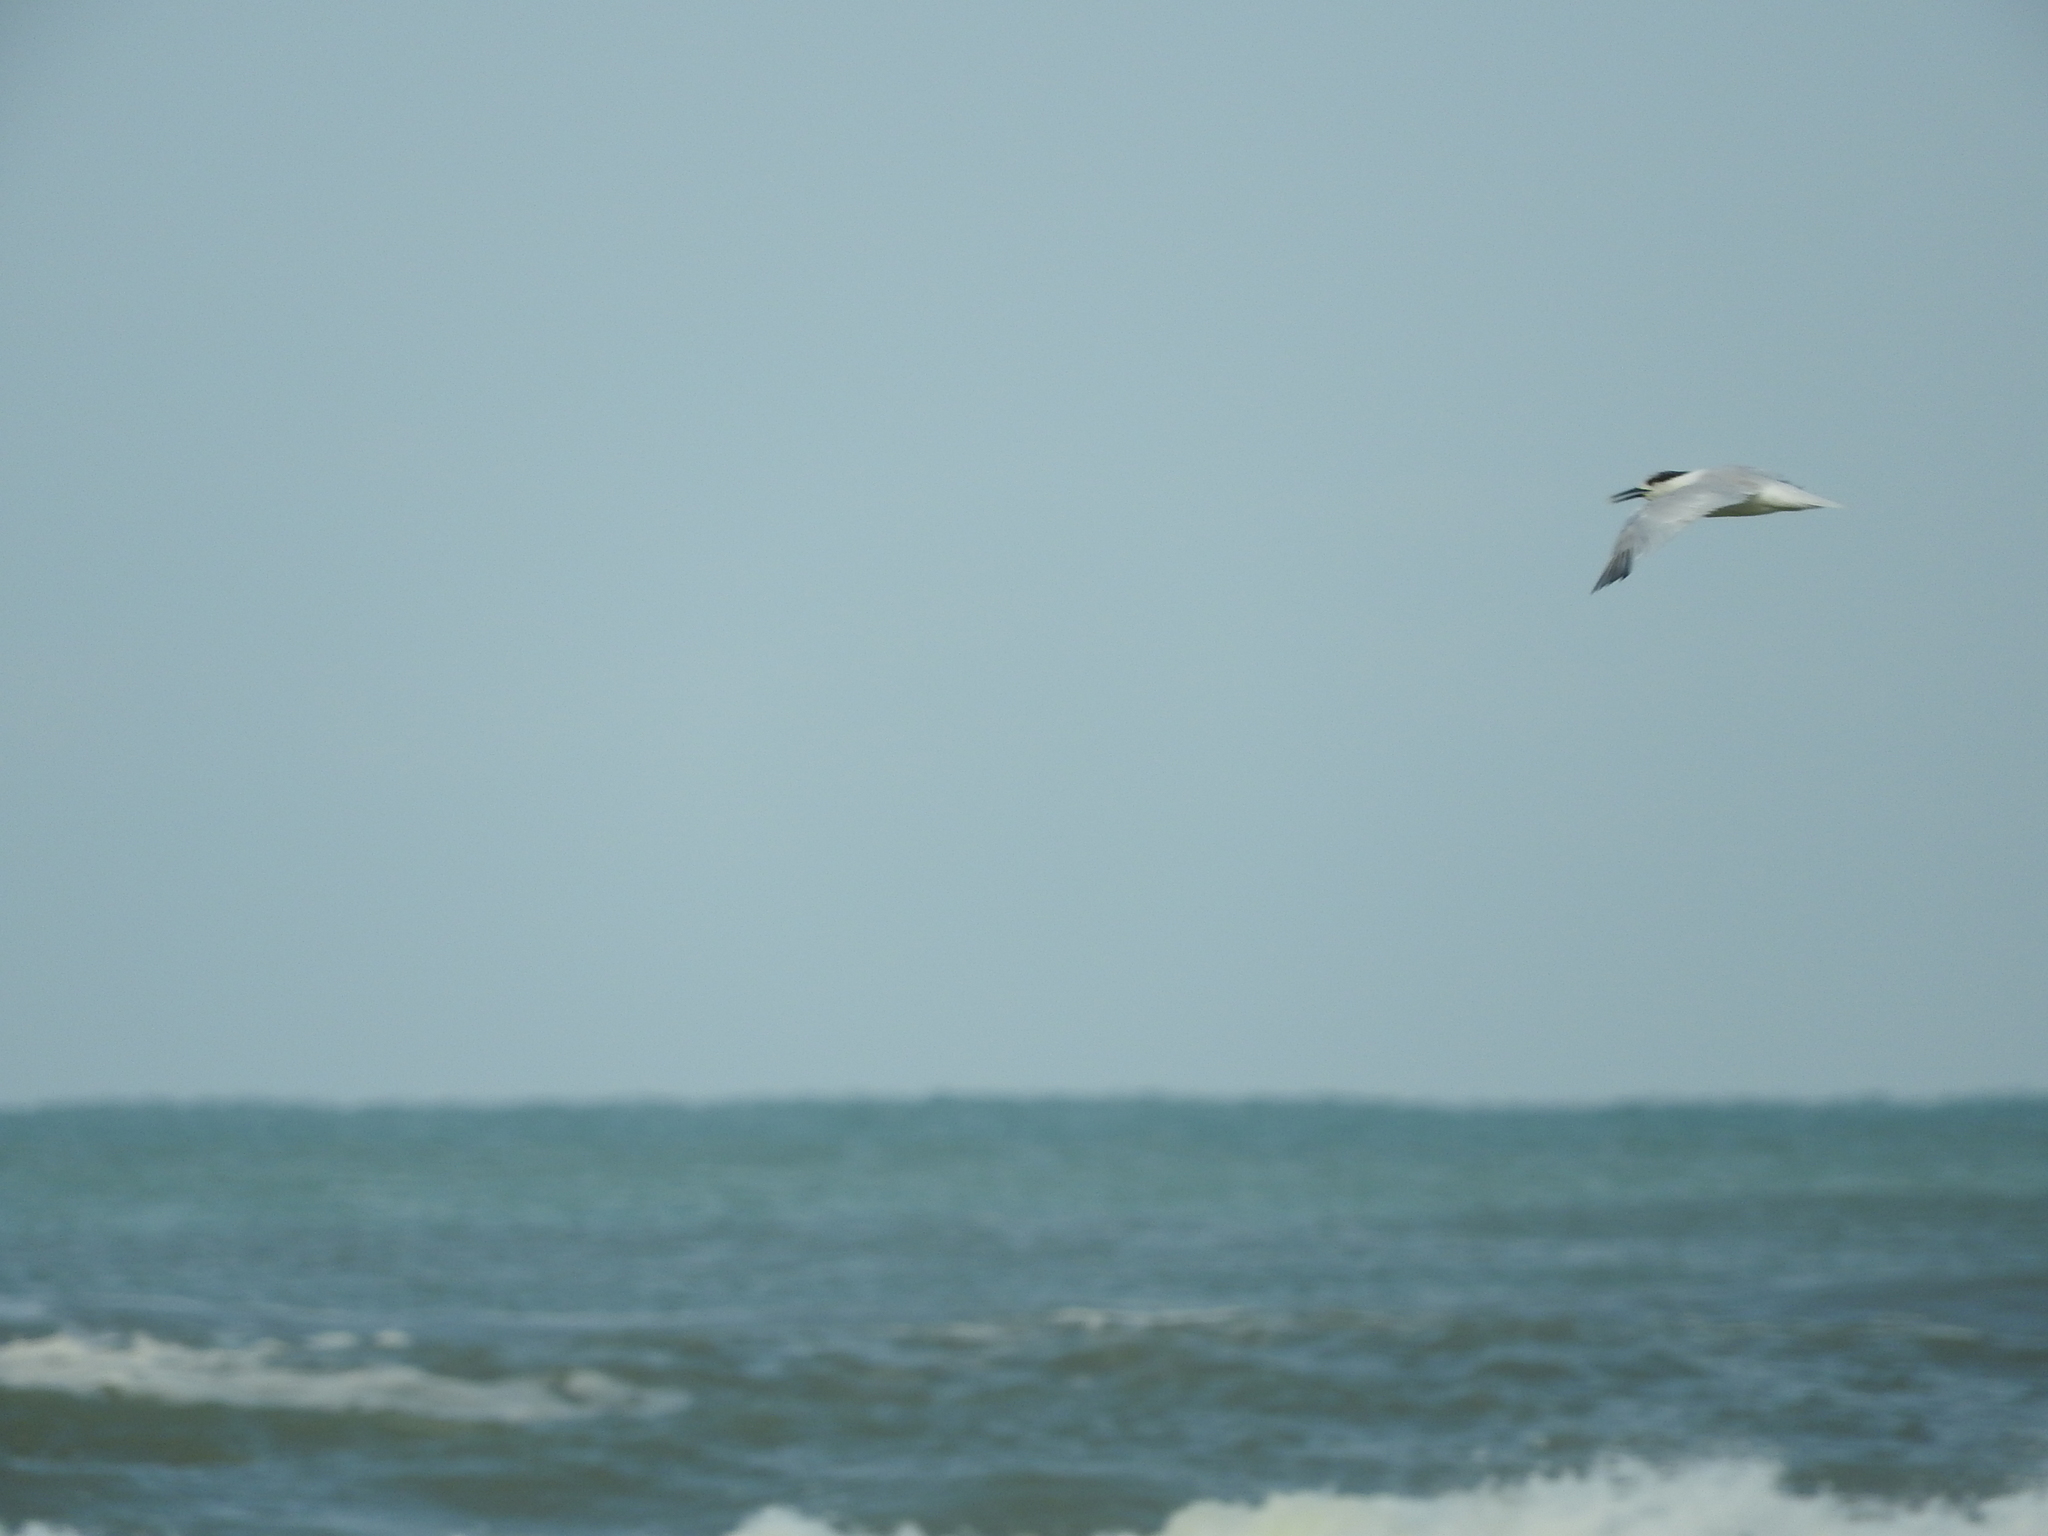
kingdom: Animalia
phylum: Chordata
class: Aves
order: Charadriiformes
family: Laridae
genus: Thalasseus
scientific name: Thalasseus sandvicensis
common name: Sandwich tern
